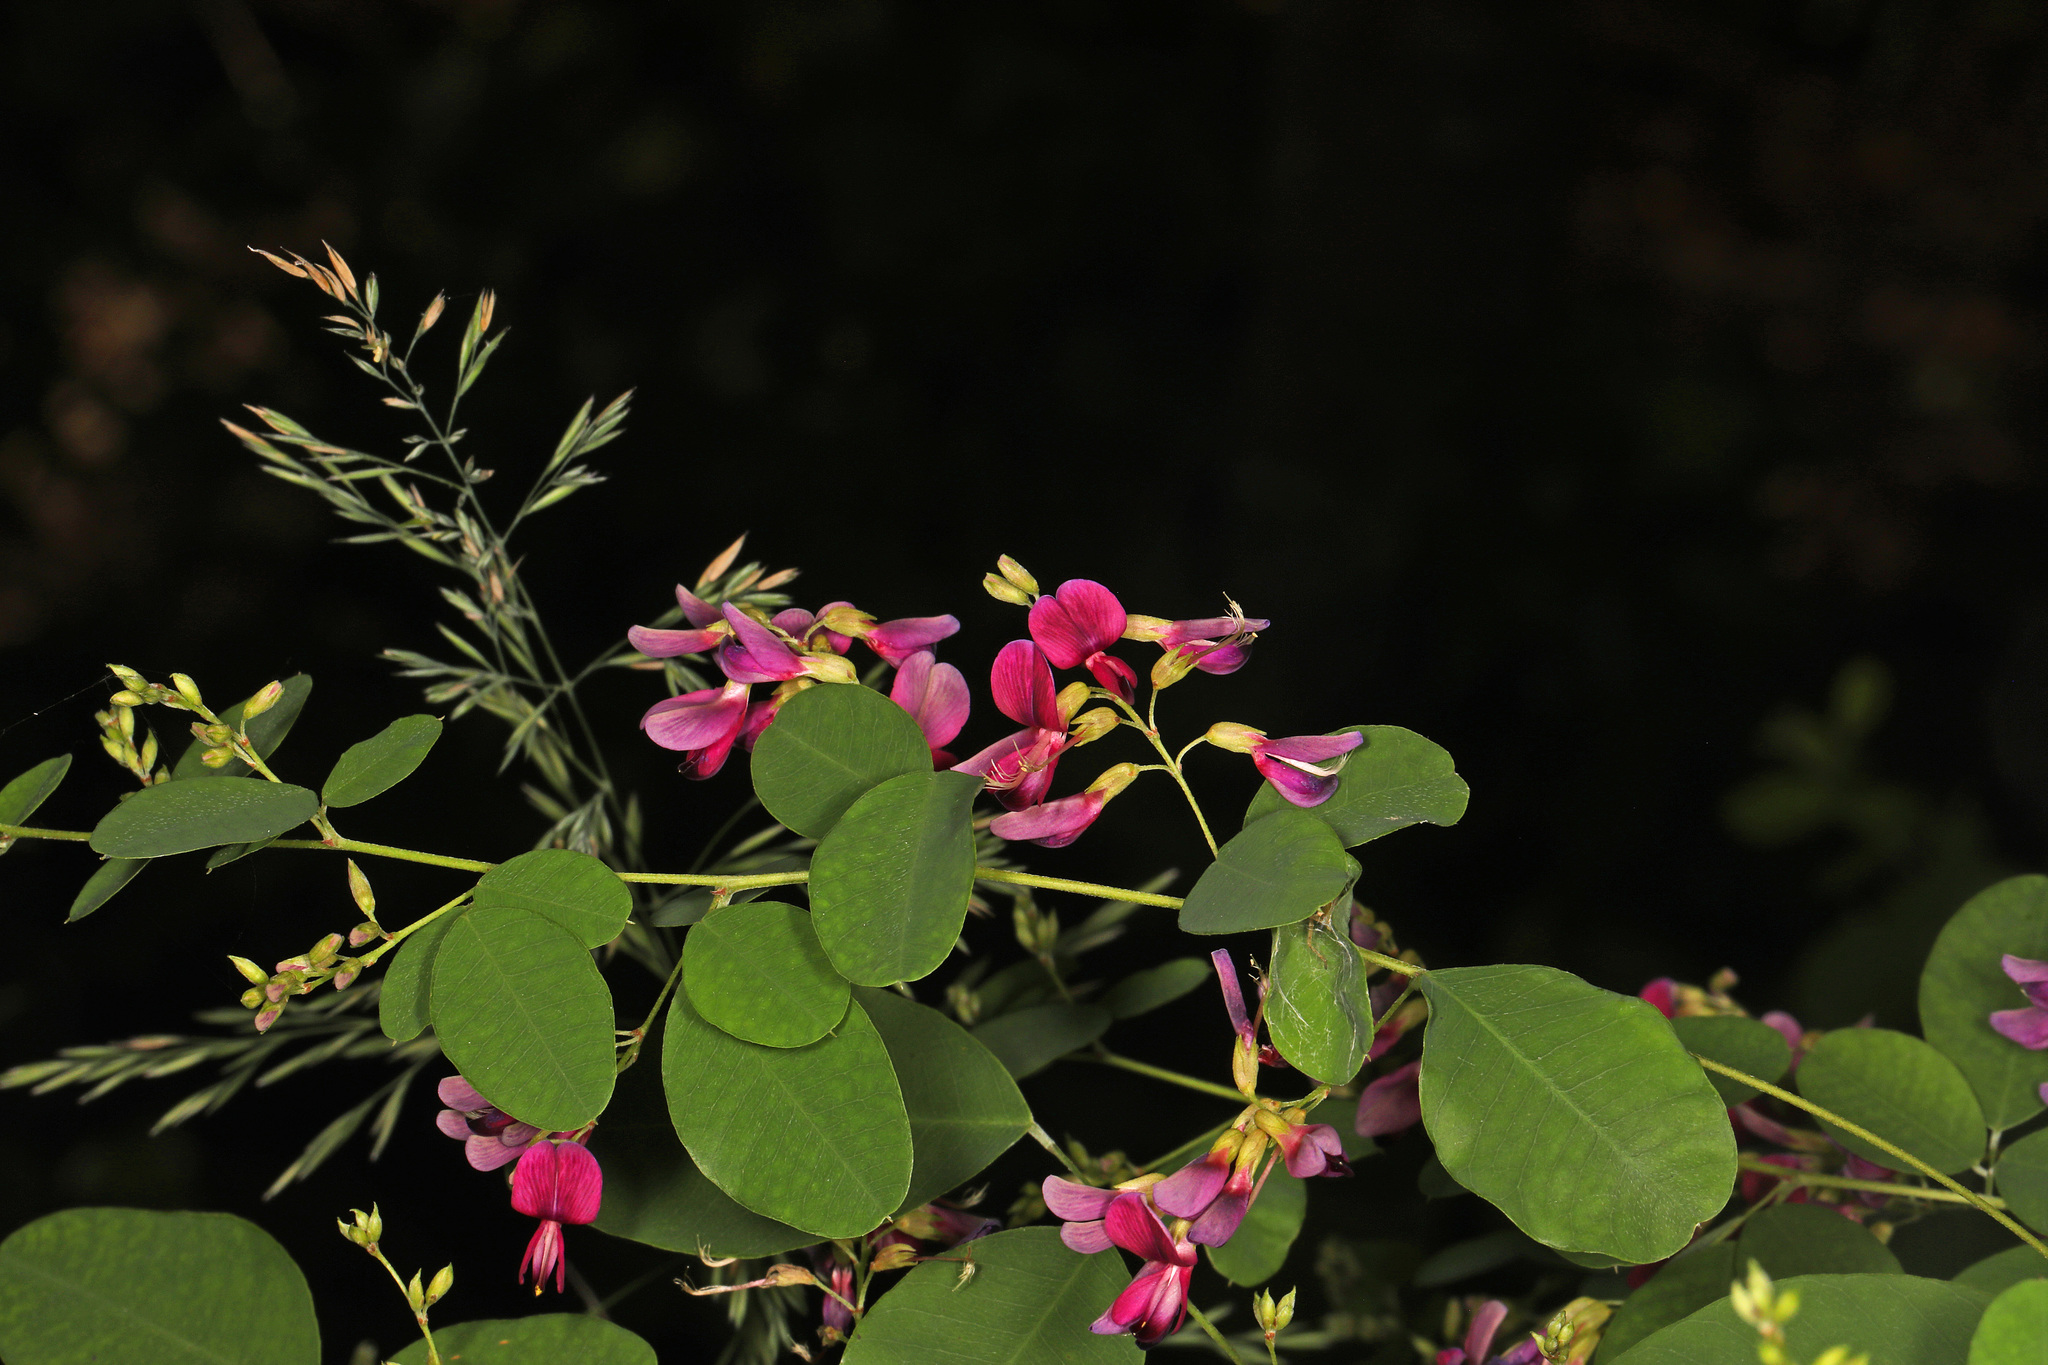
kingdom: Plantae
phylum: Tracheophyta
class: Magnoliopsida
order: Fabales
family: Fabaceae
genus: Lespedeza
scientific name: Lespedeza bicolor
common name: Shrub lespedeza
